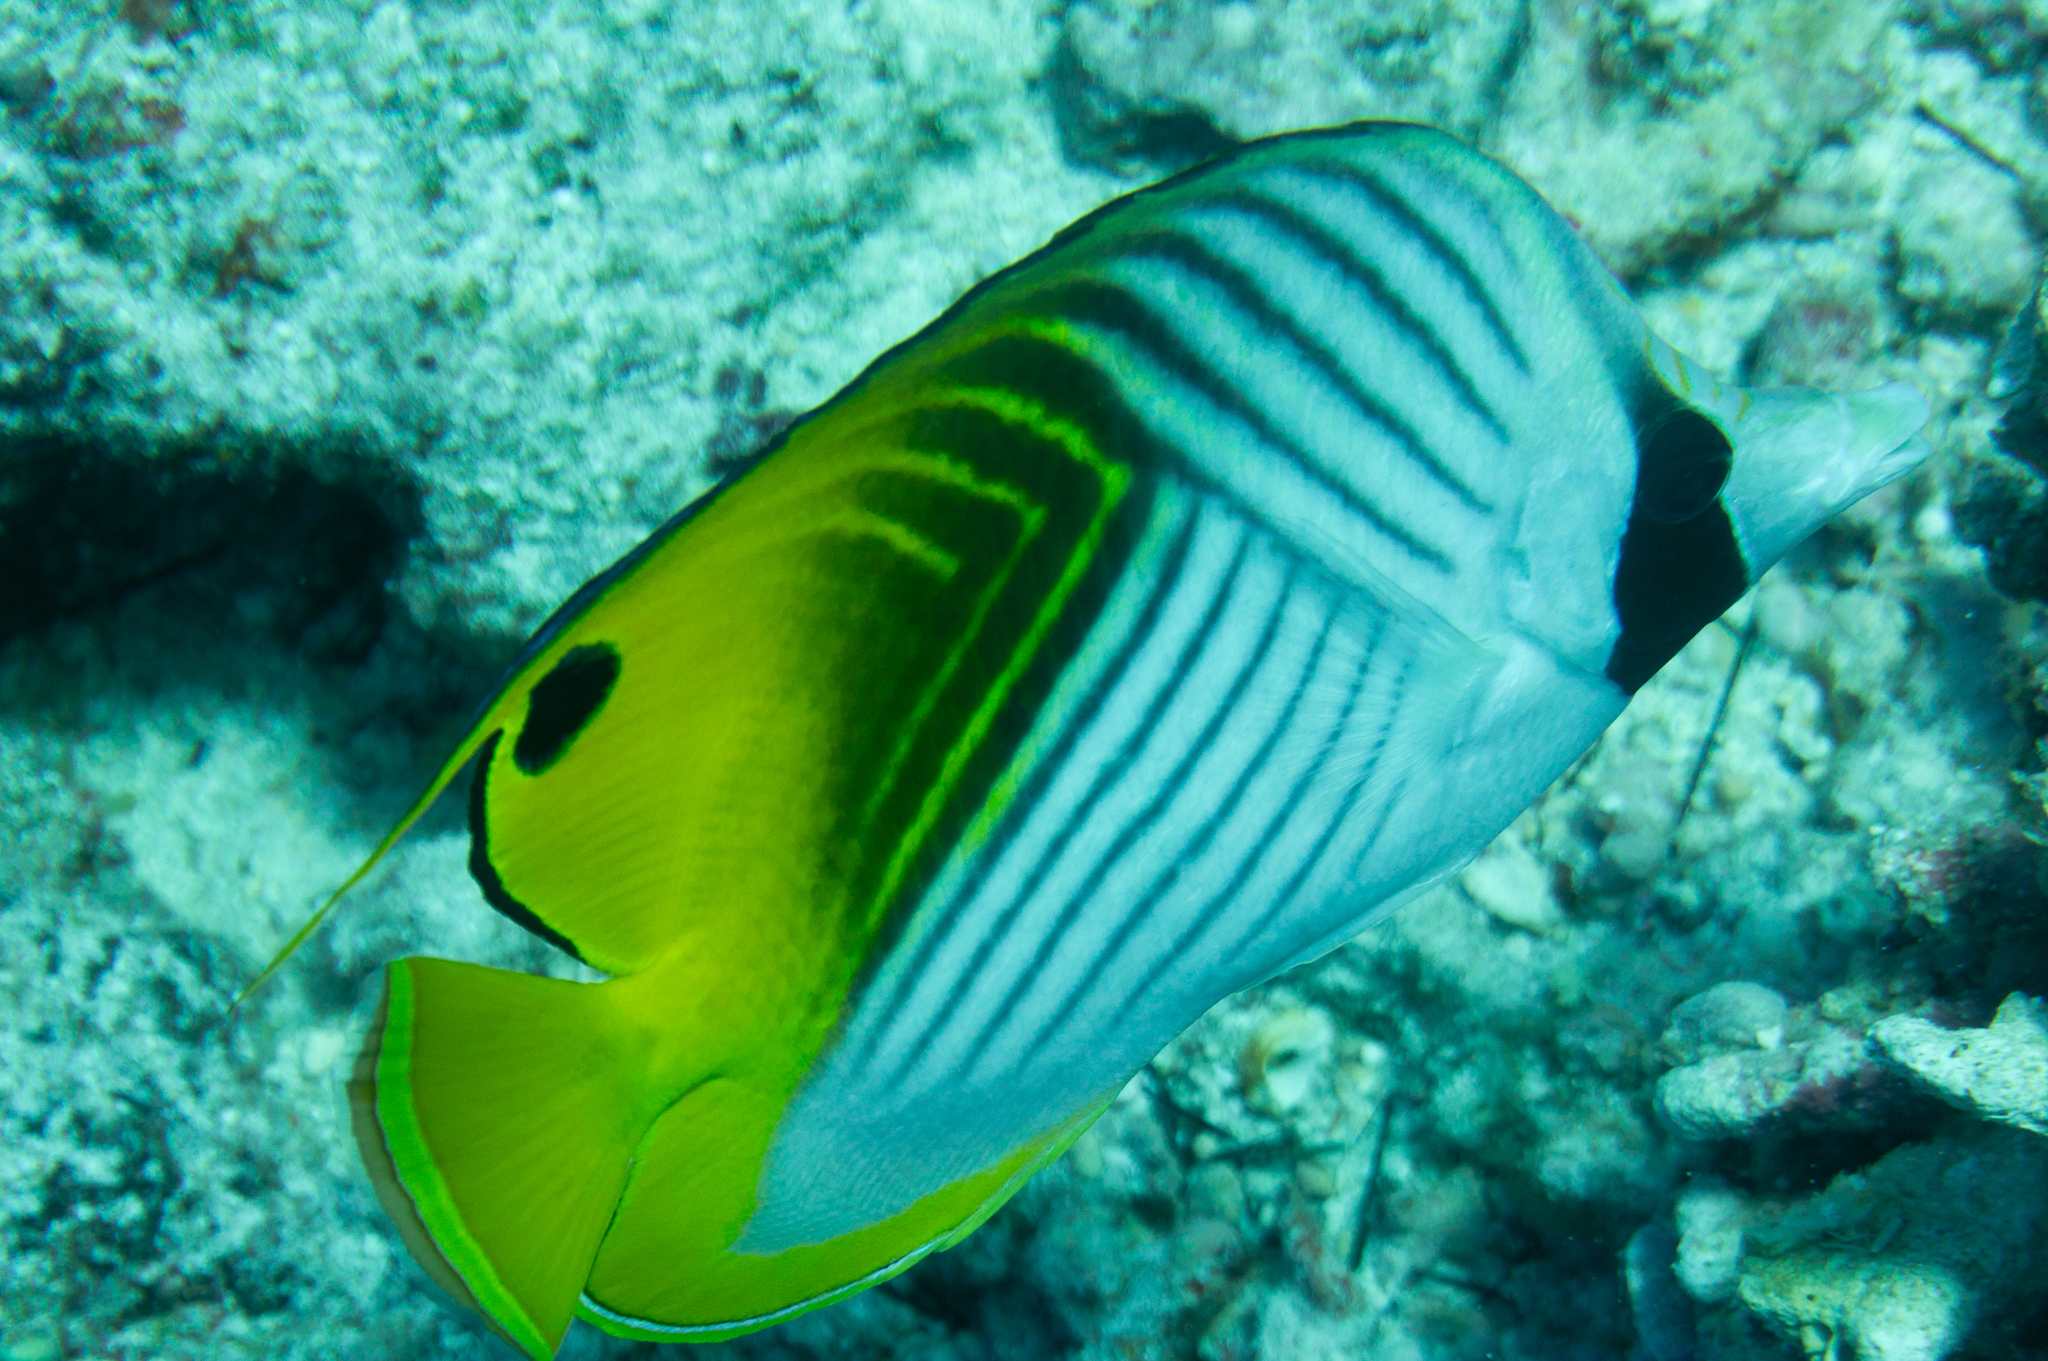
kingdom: Animalia
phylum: Chordata
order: Perciformes
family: Chaetodontidae
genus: Chaetodon
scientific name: Chaetodon auriga
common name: Threadfin butterflyfish
